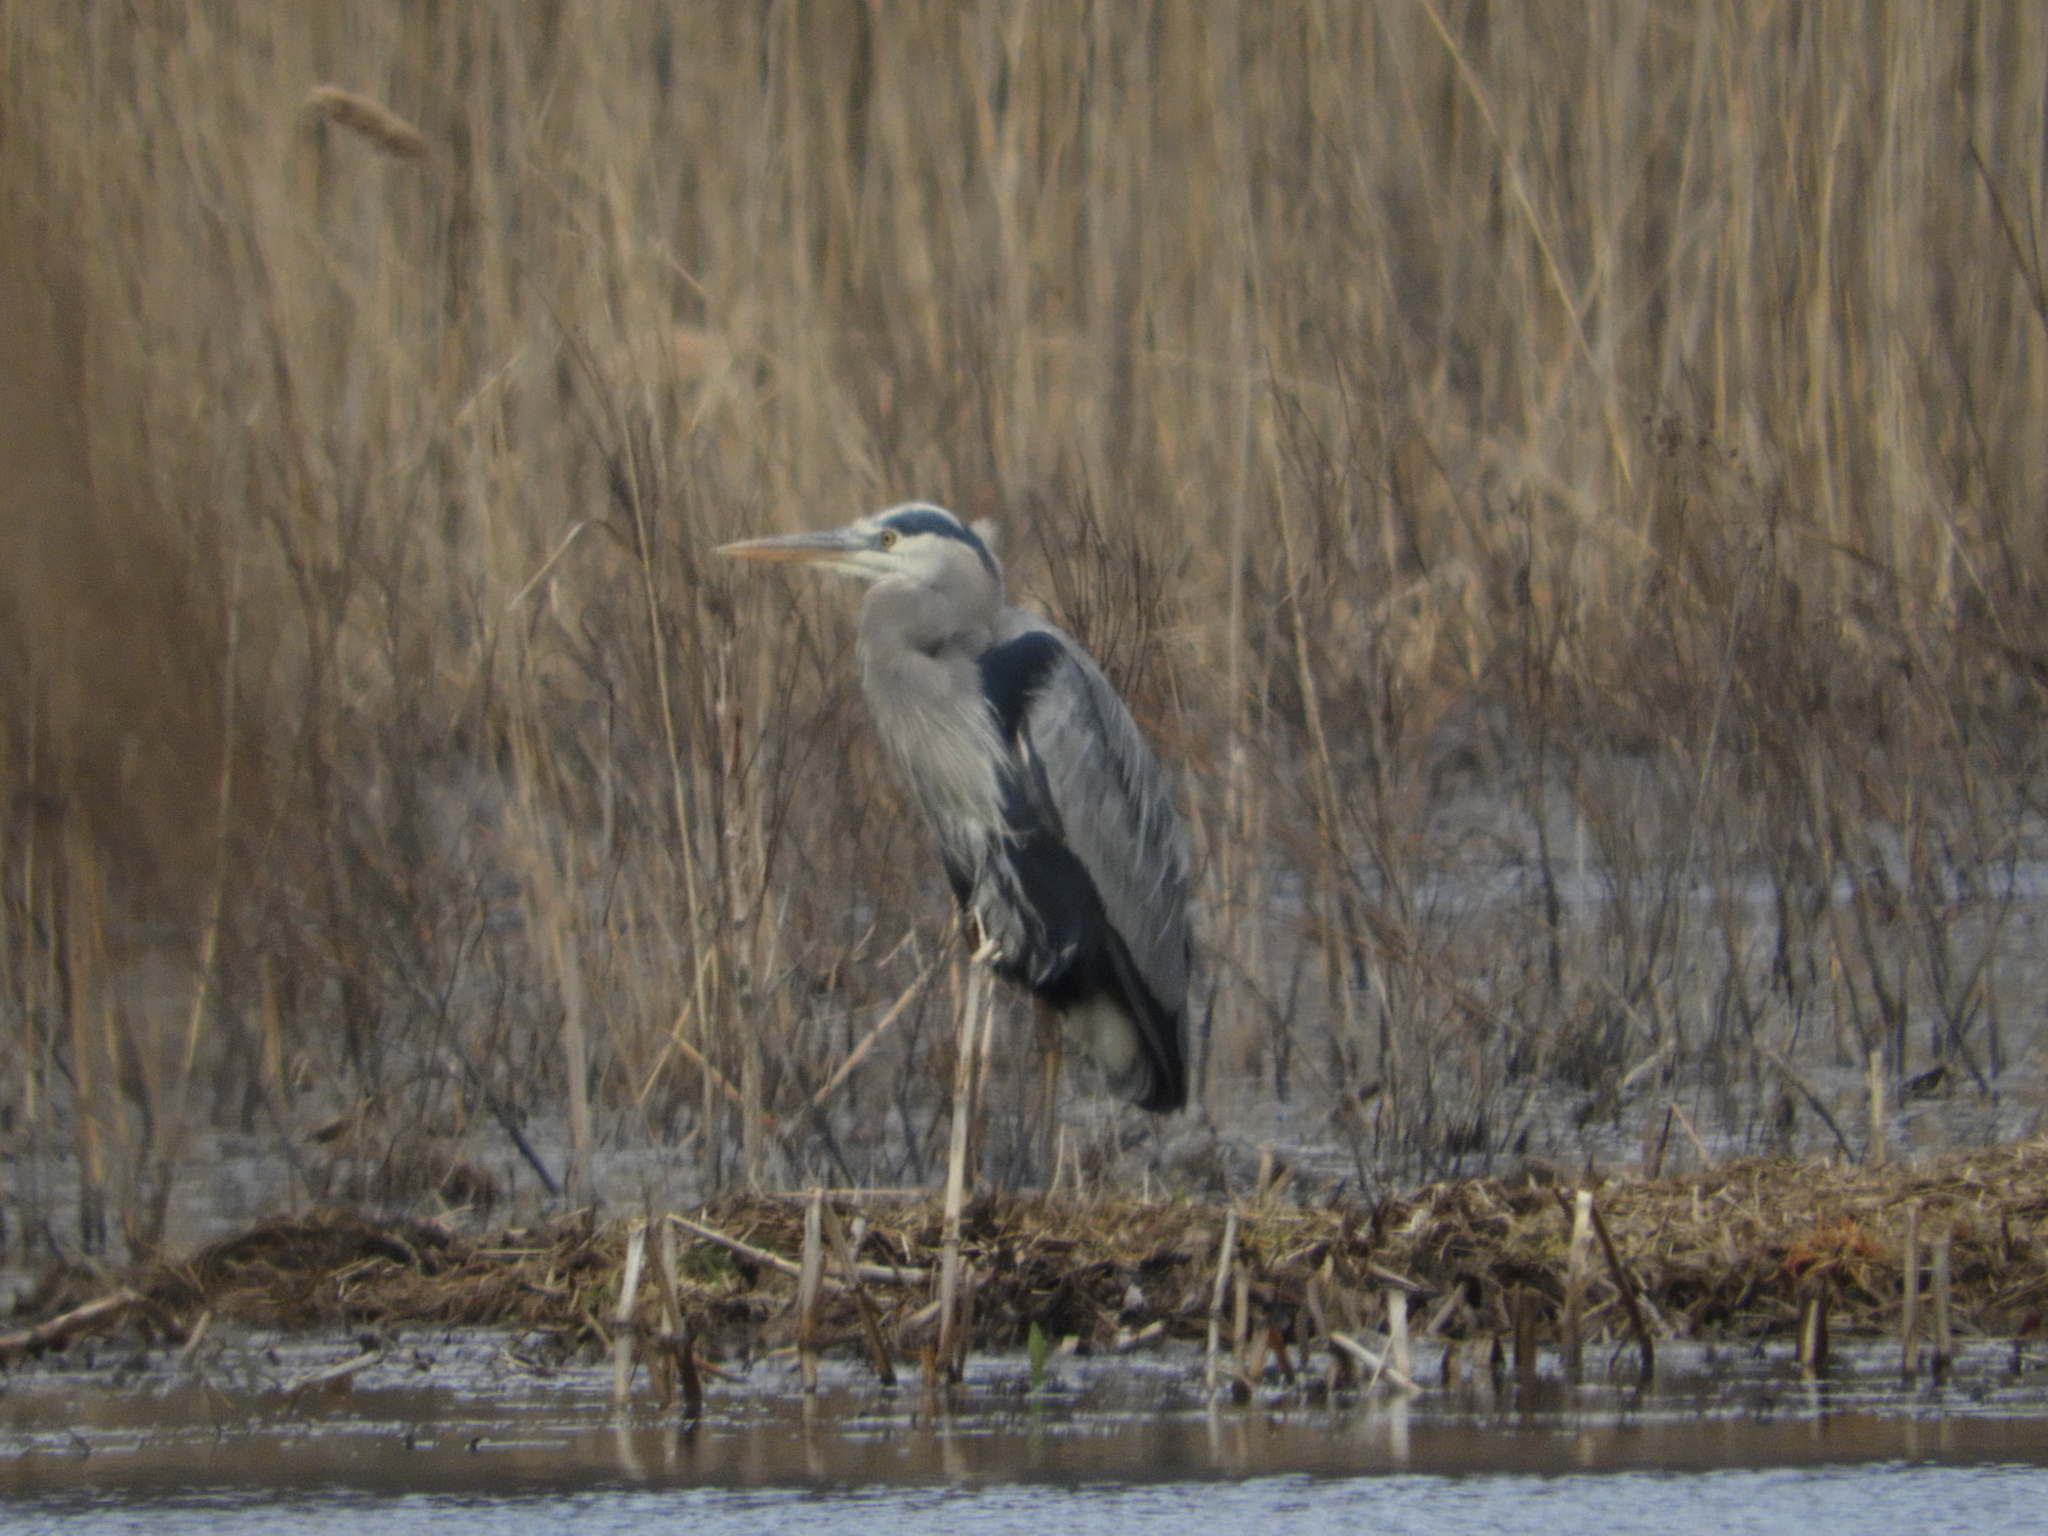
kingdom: Animalia
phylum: Chordata
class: Aves
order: Pelecaniformes
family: Ardeidae
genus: Ardea
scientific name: Ardea herodias
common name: Great blue heron
